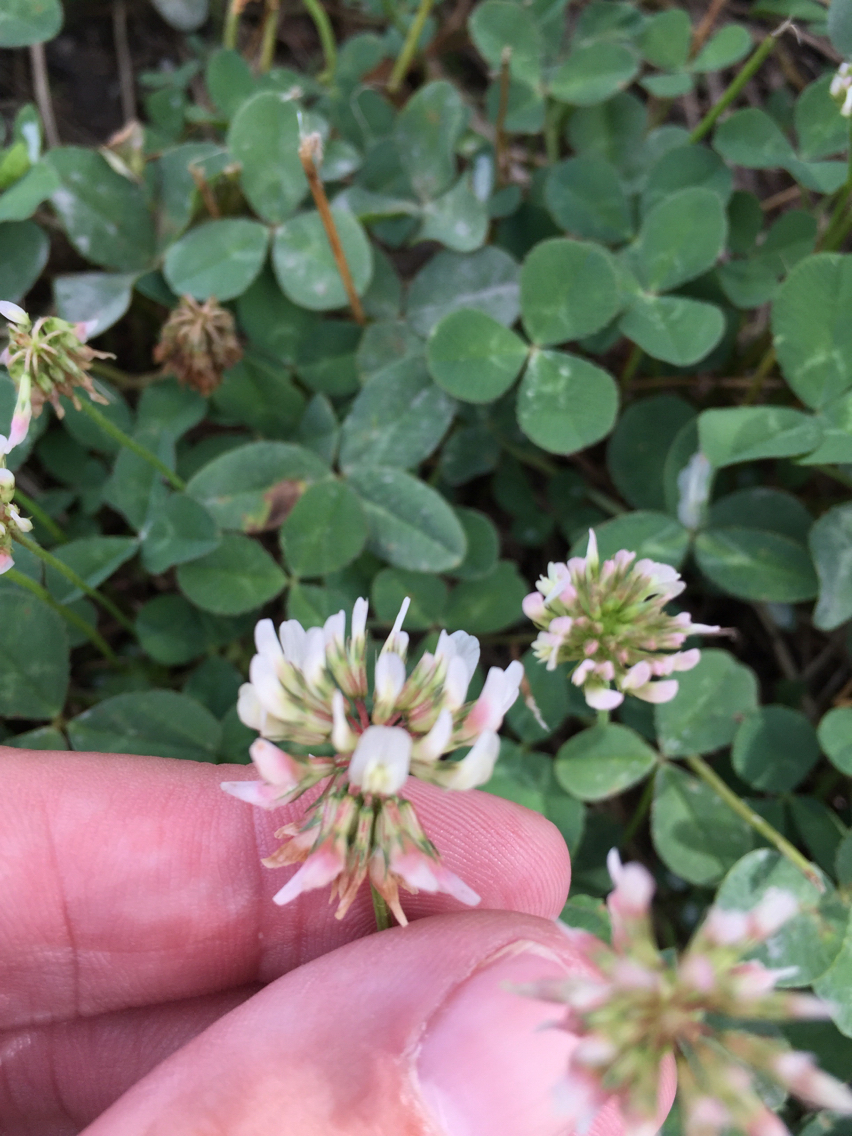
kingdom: Plantae
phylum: Tracheophyta
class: Magnoliopsida
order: Fabales
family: Fabaceae
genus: Trifolium
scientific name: Trifolium repens
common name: White clover
